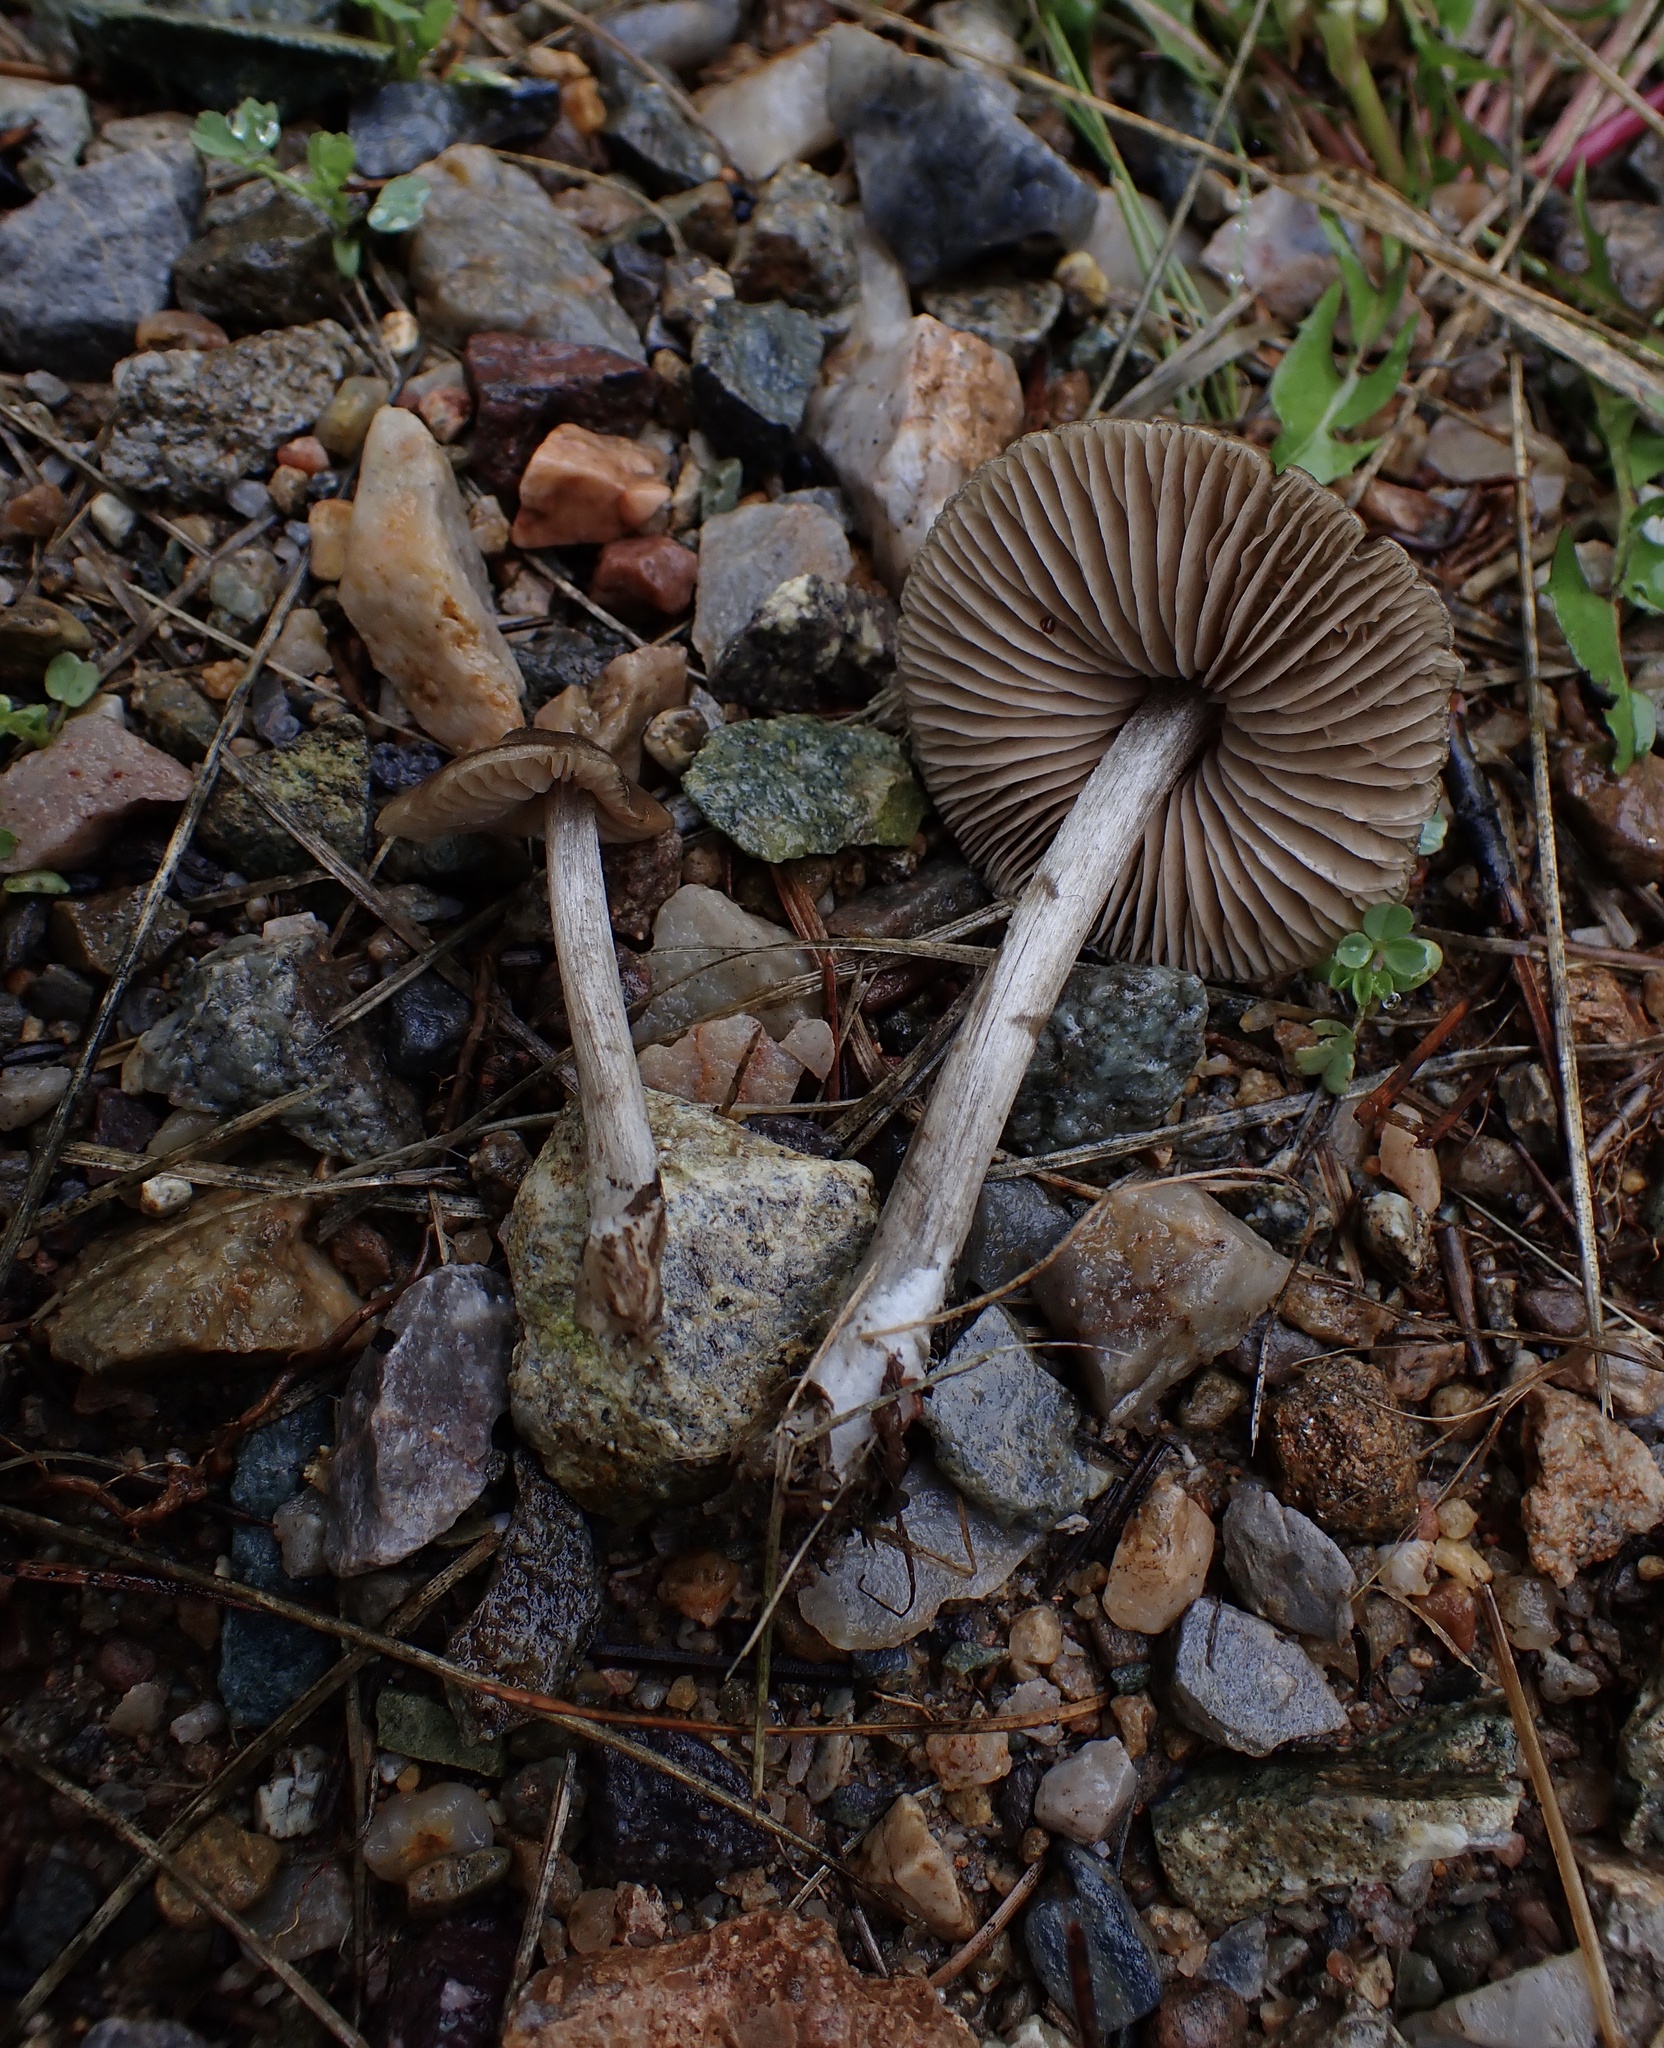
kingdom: Fungi
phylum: Basidiomycota
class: Agaricomycetes
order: Agaricales
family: Entolomataceae
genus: Entoloma
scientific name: Entoloma incanosquamulosum
